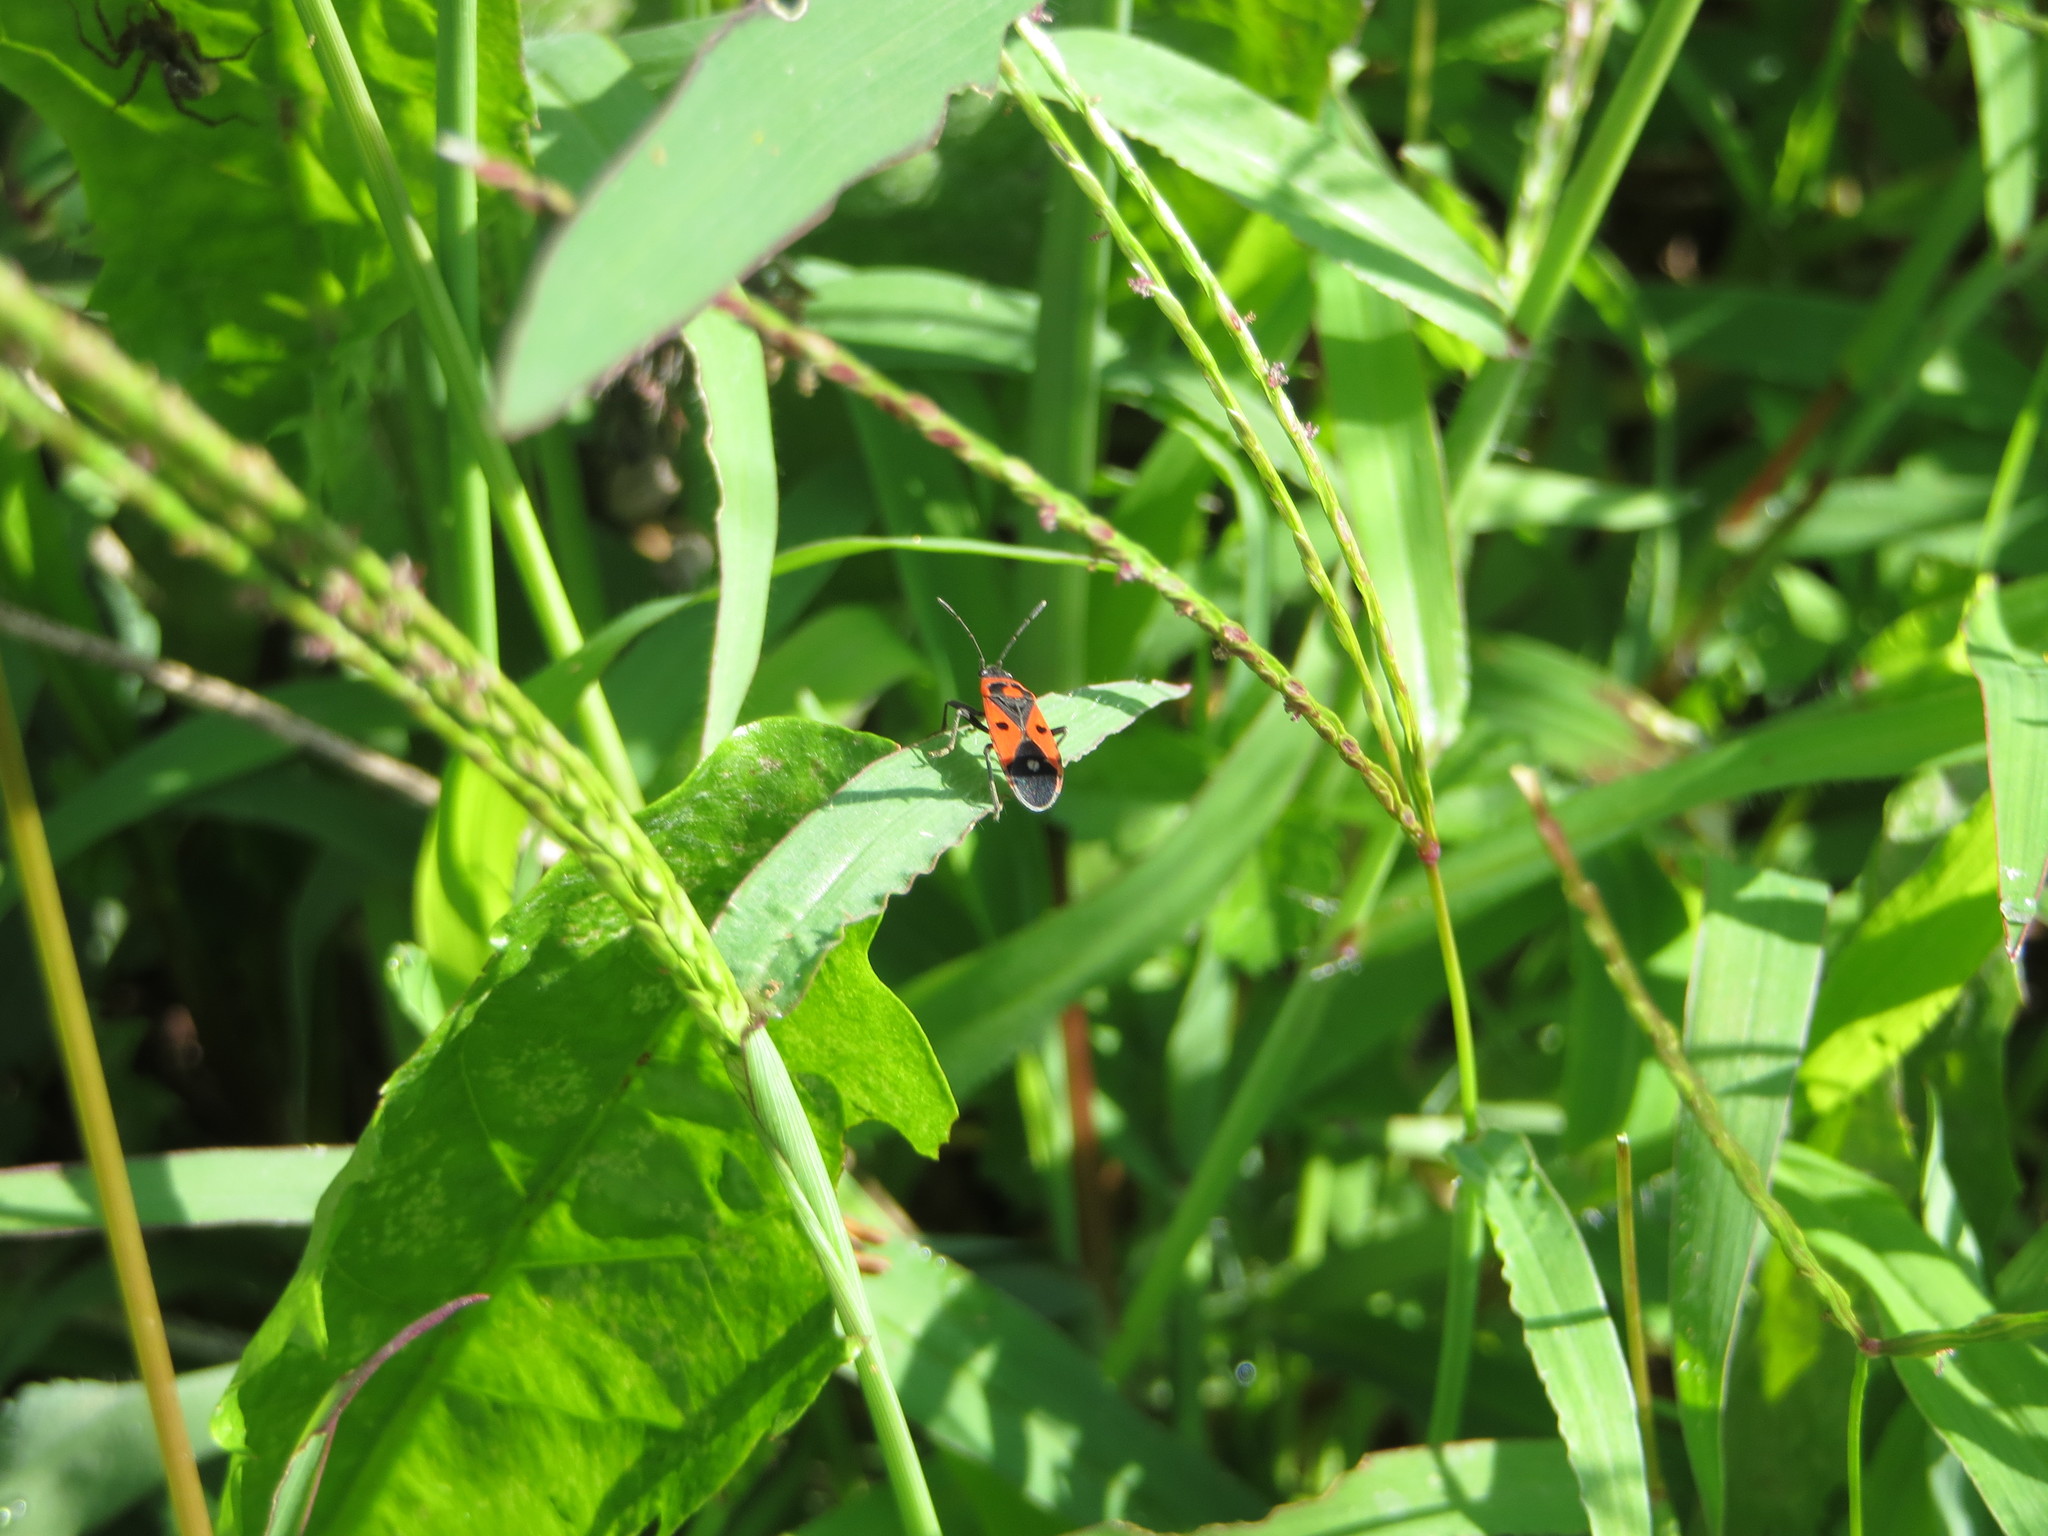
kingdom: Animalia
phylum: Arthropoda
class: Insecta
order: Hemiptera
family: Lygaeidae
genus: Melanocoryphus
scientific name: Melanocoryphus albomaculatus
